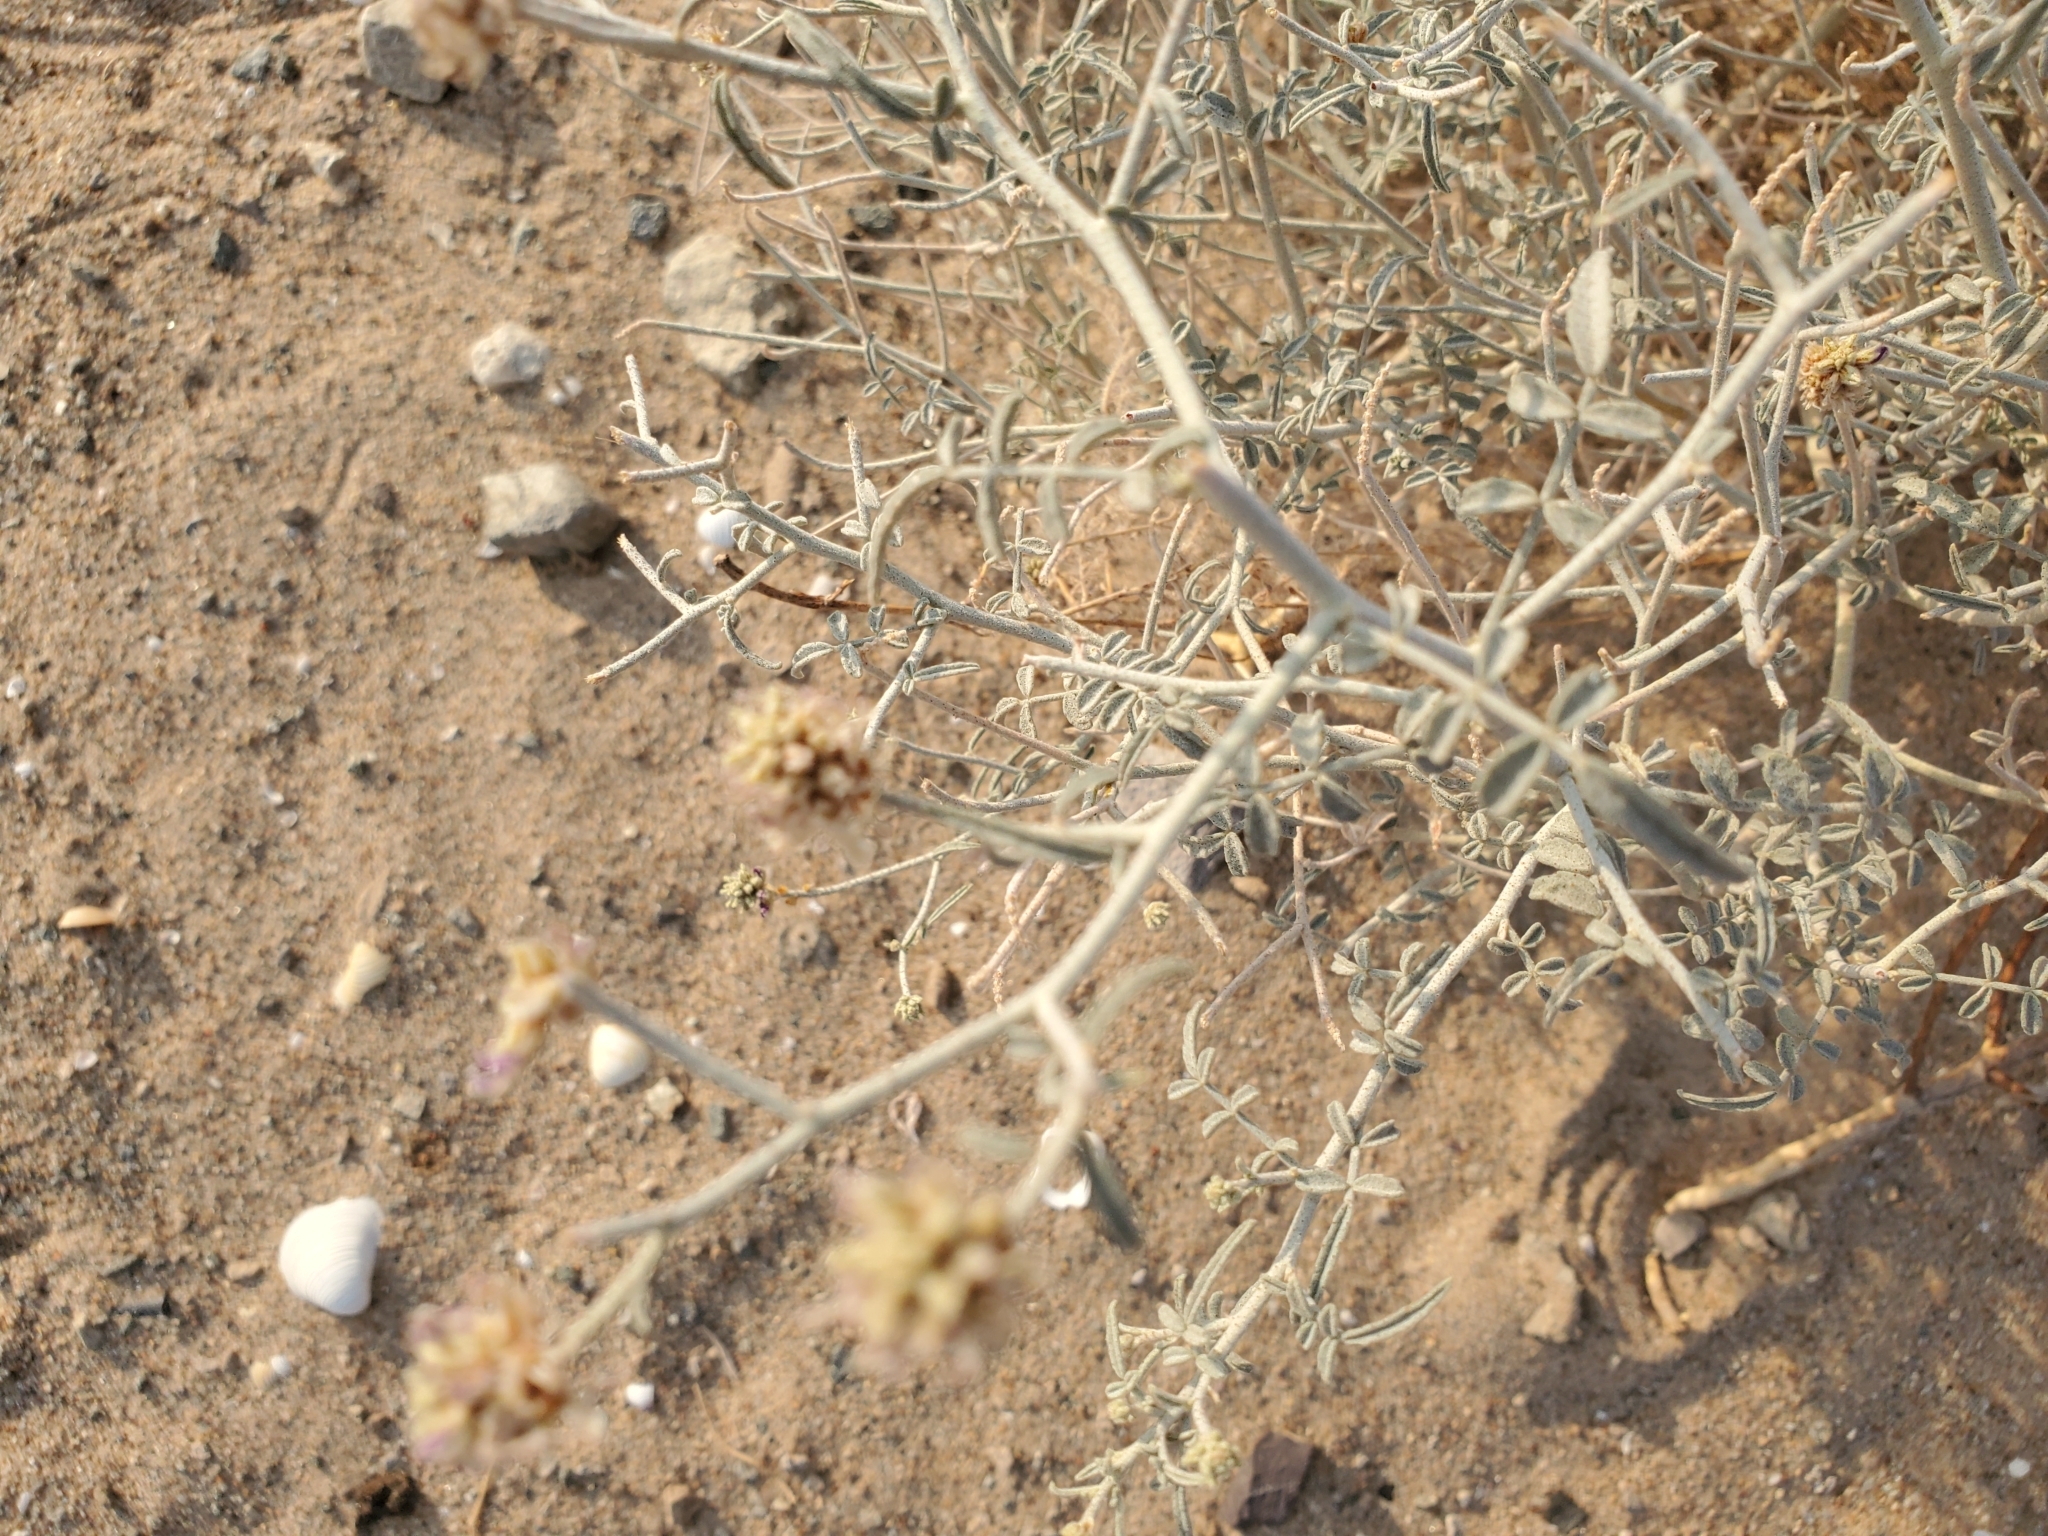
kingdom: Plantae
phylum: Tracheophyta
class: Magnoliopsida
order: Fabales
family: Fabaceae
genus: Psorothamnus
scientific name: Psorothamnus emoryi
